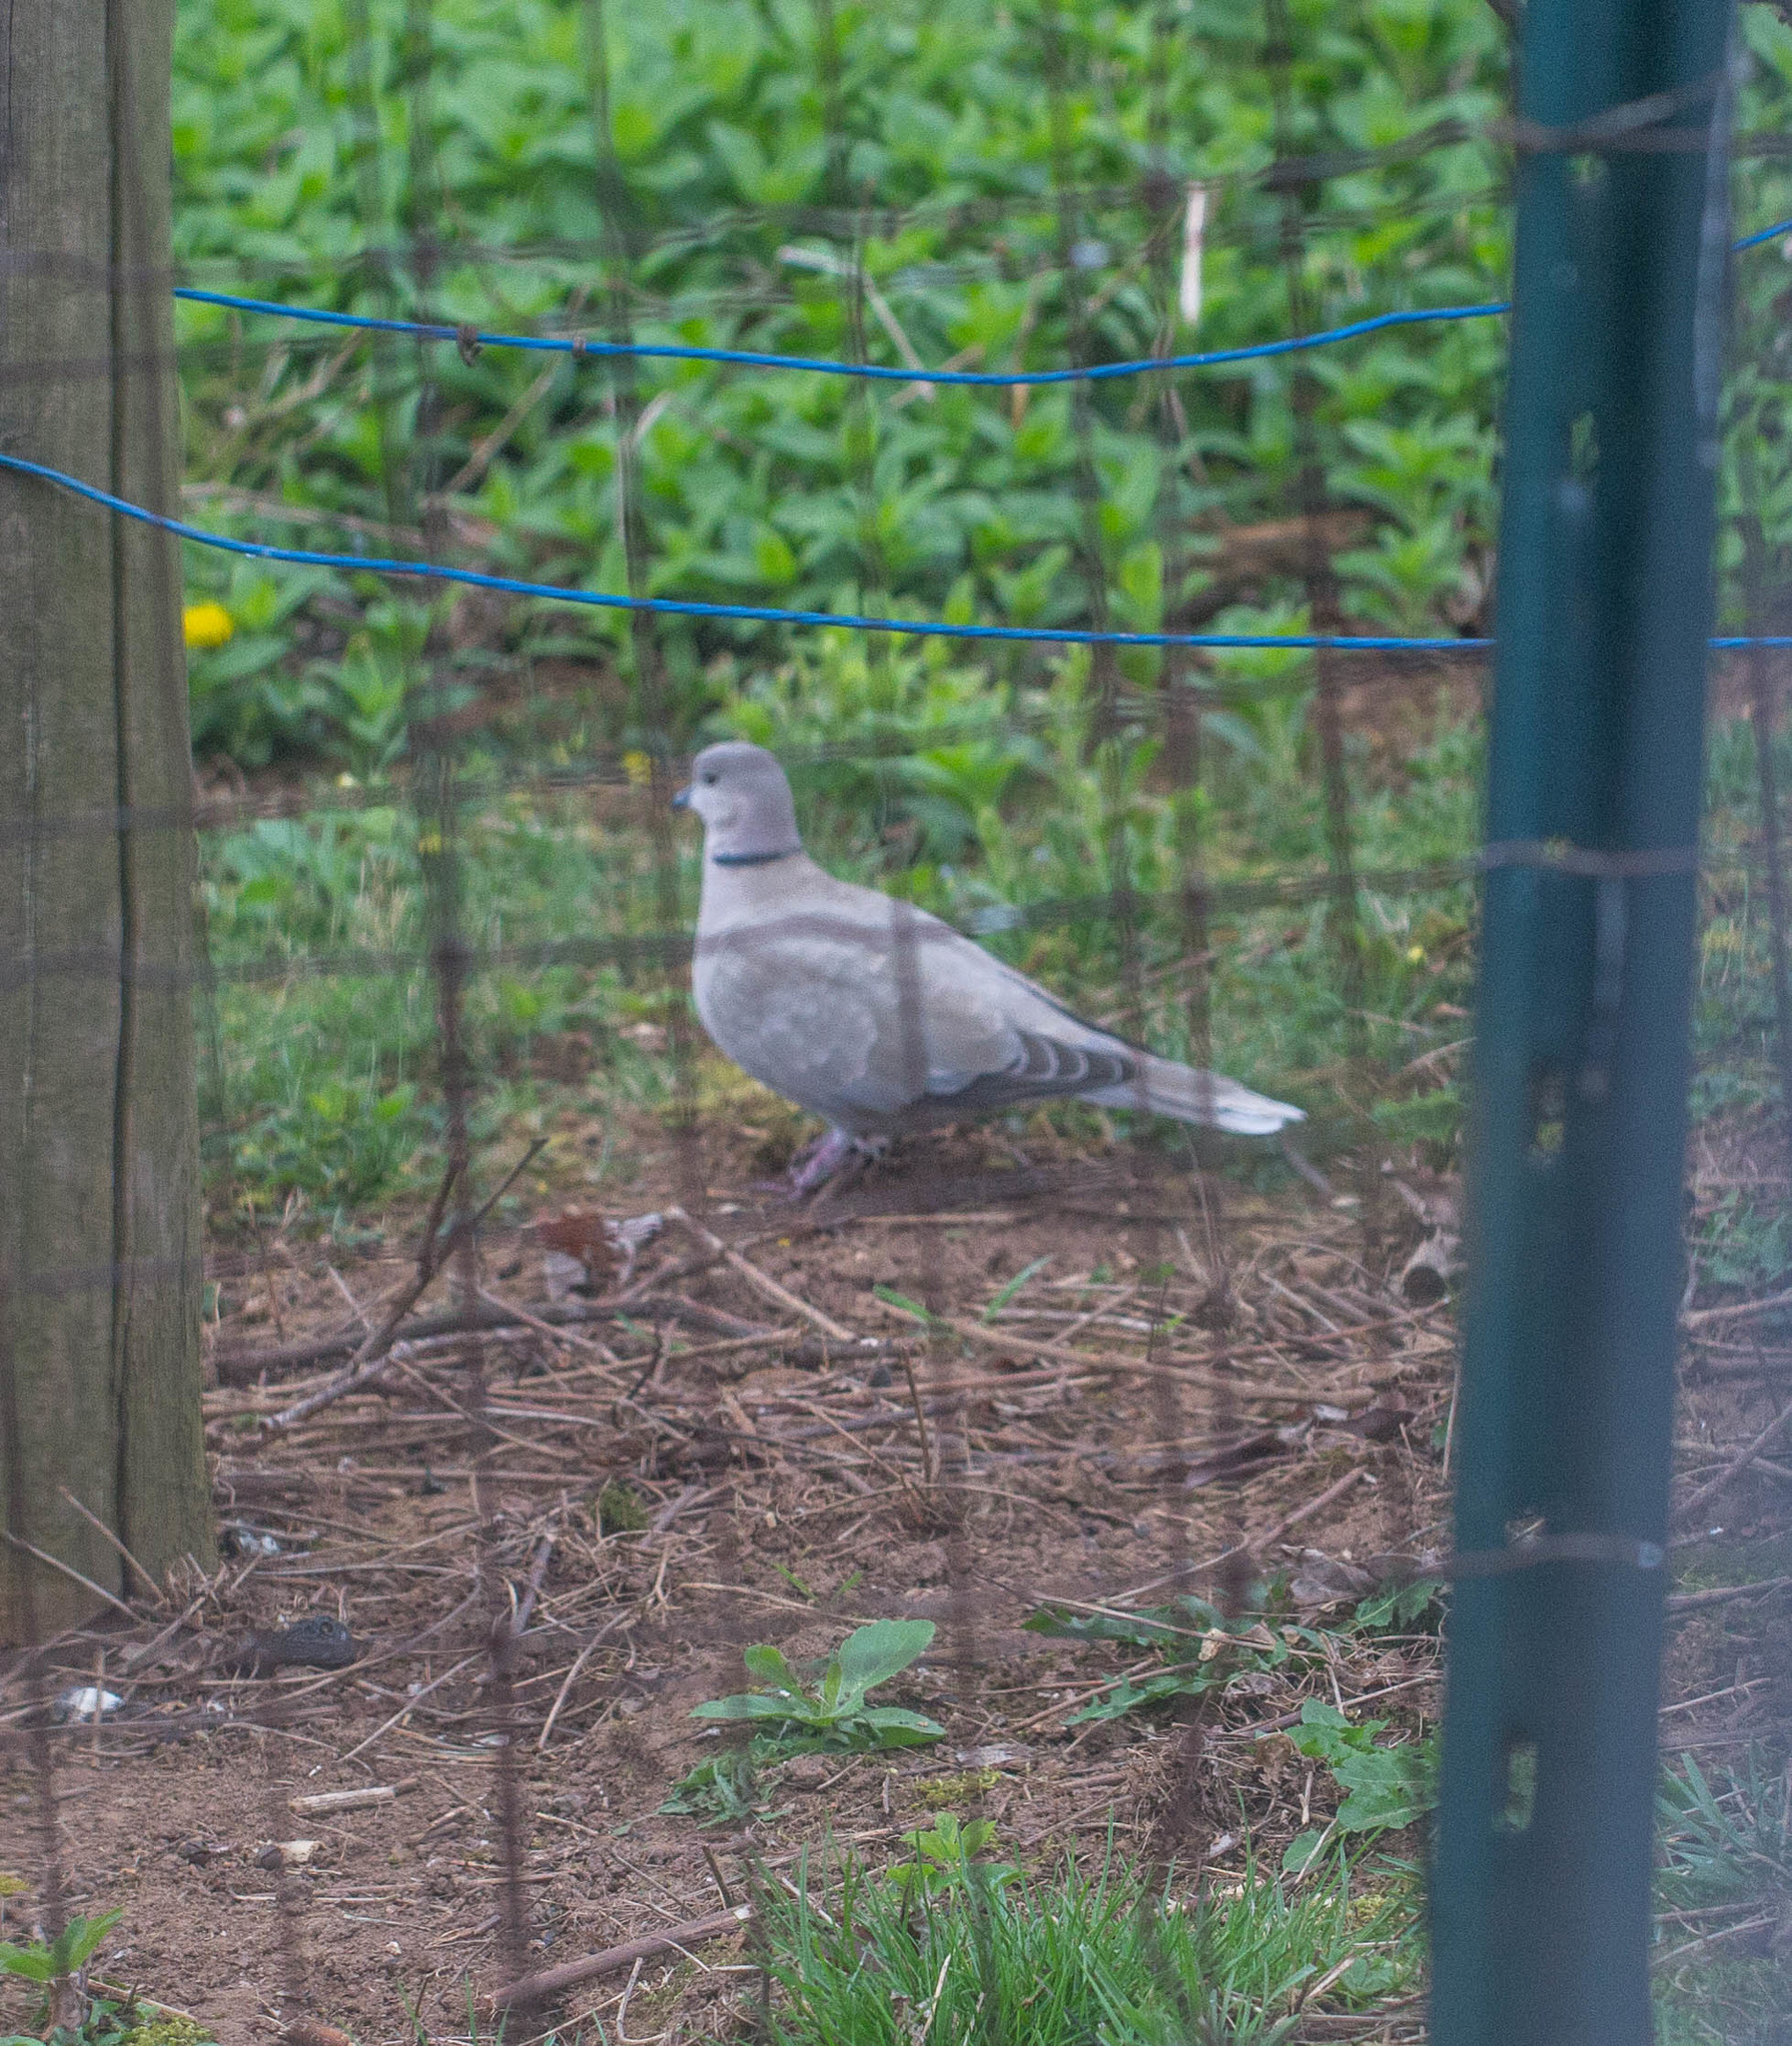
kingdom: Animalia
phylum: Chordata
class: Aves
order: Columbiformes
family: Columbidae
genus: Streptopelia
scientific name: Streptopelia decaocto
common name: Eurasian collared dove
